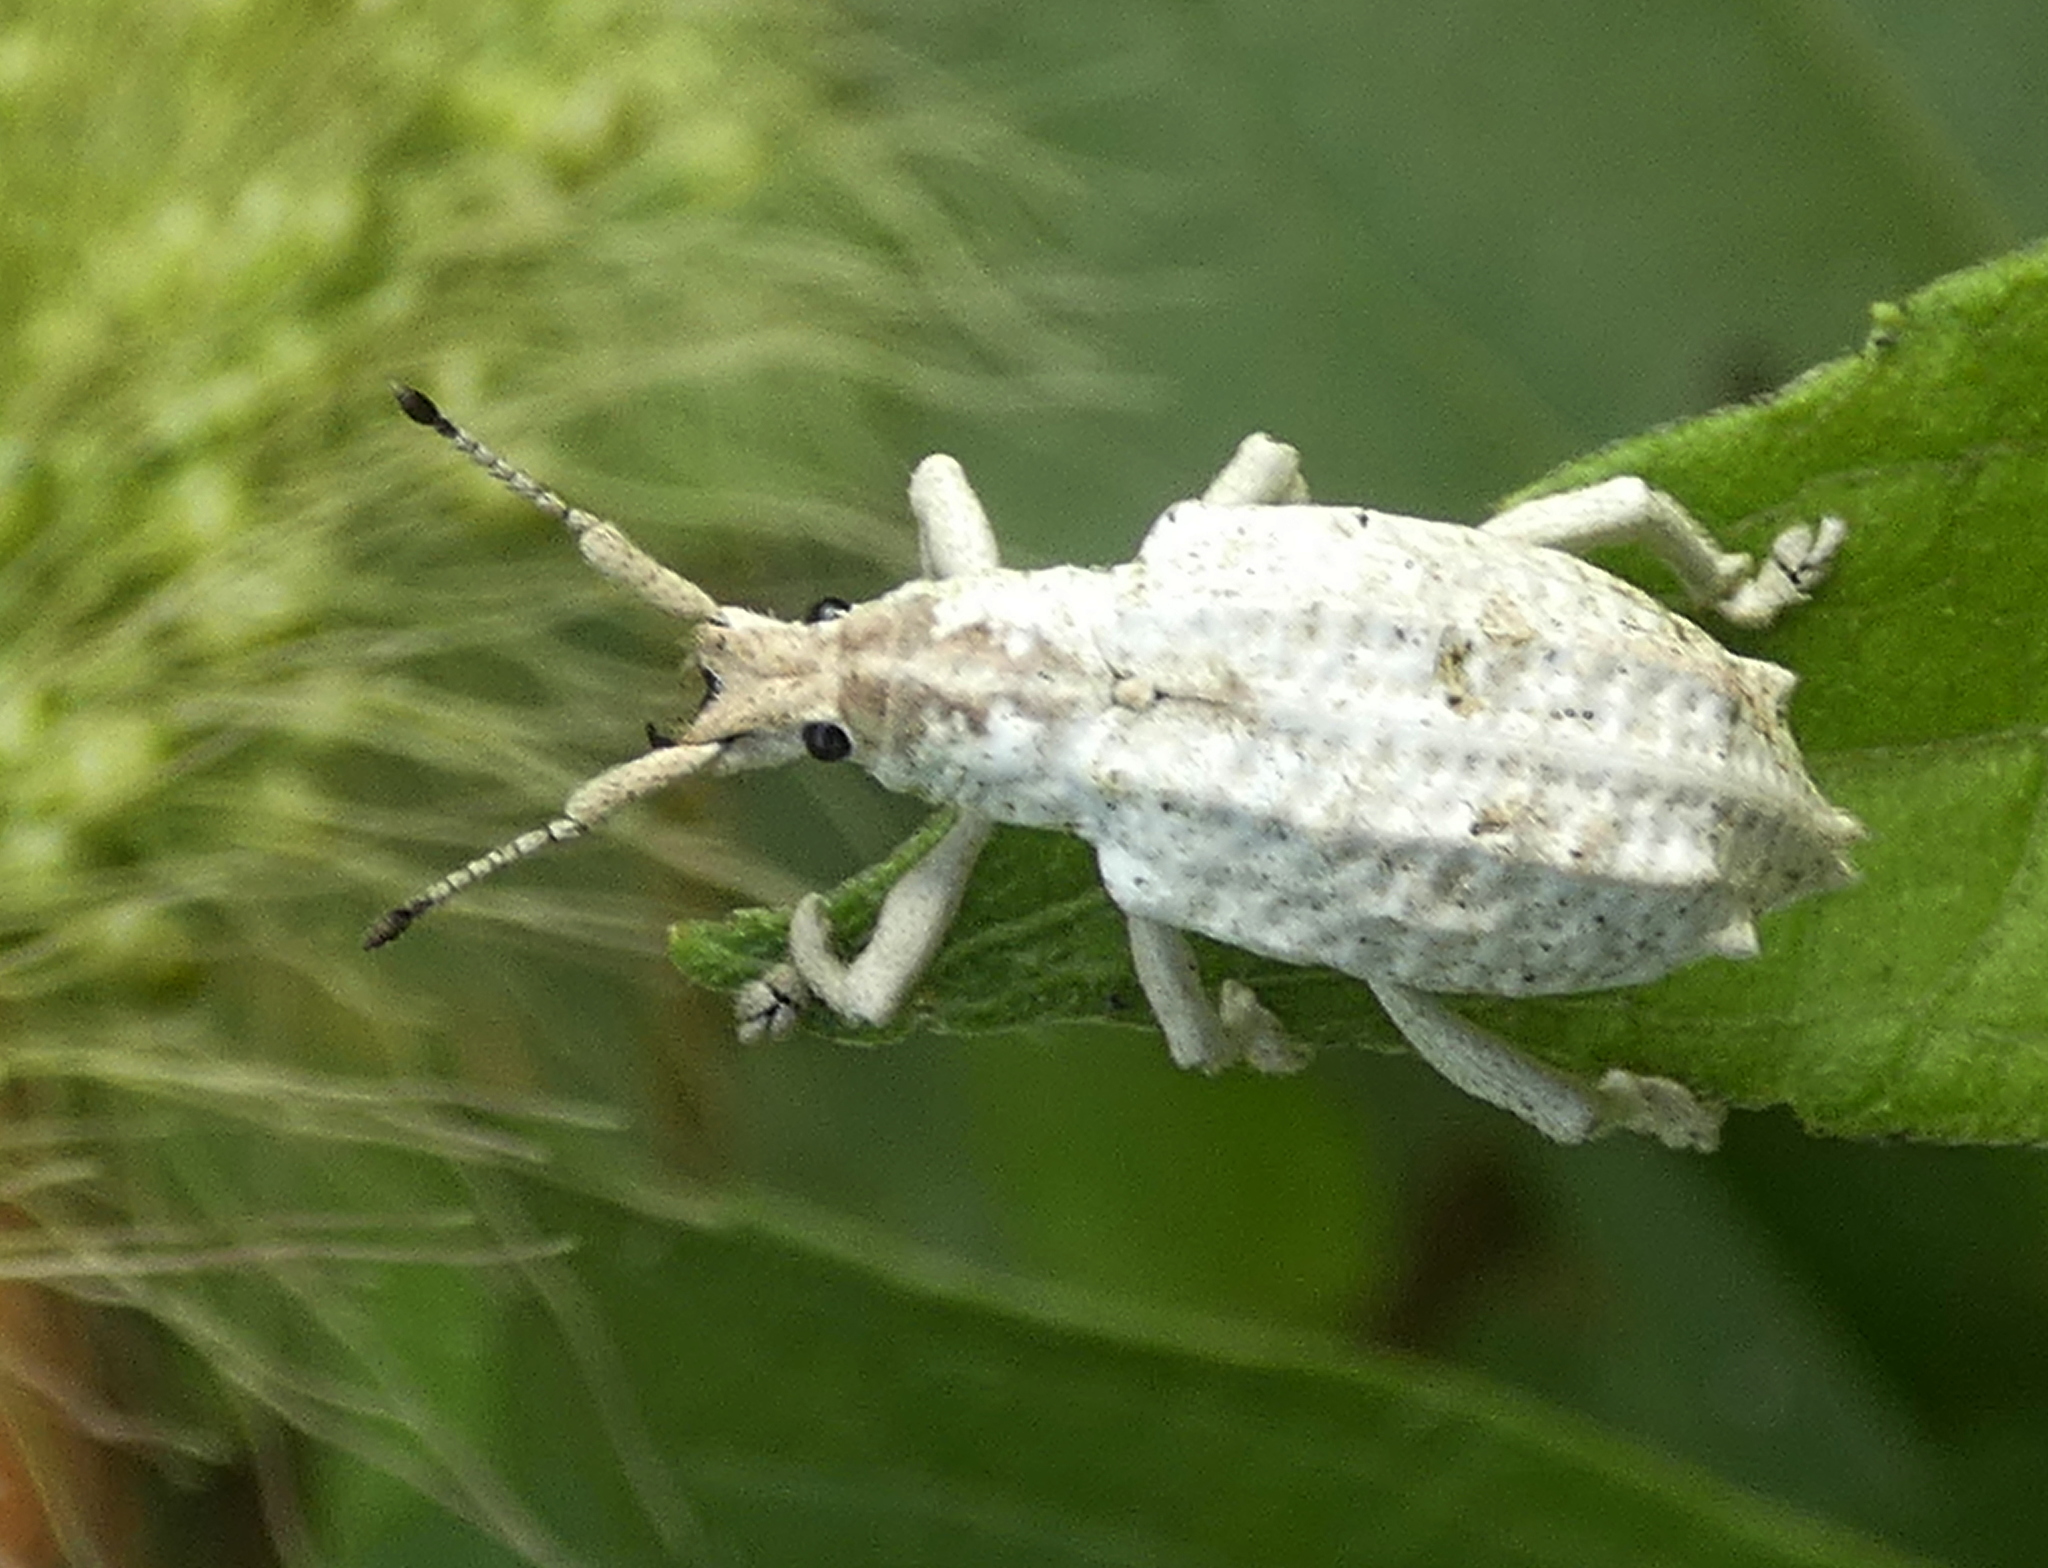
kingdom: Animalia
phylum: Arthropoda
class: Insecta
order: Coleoptera
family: Curculionidae
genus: Compsus
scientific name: Compsus niveus
